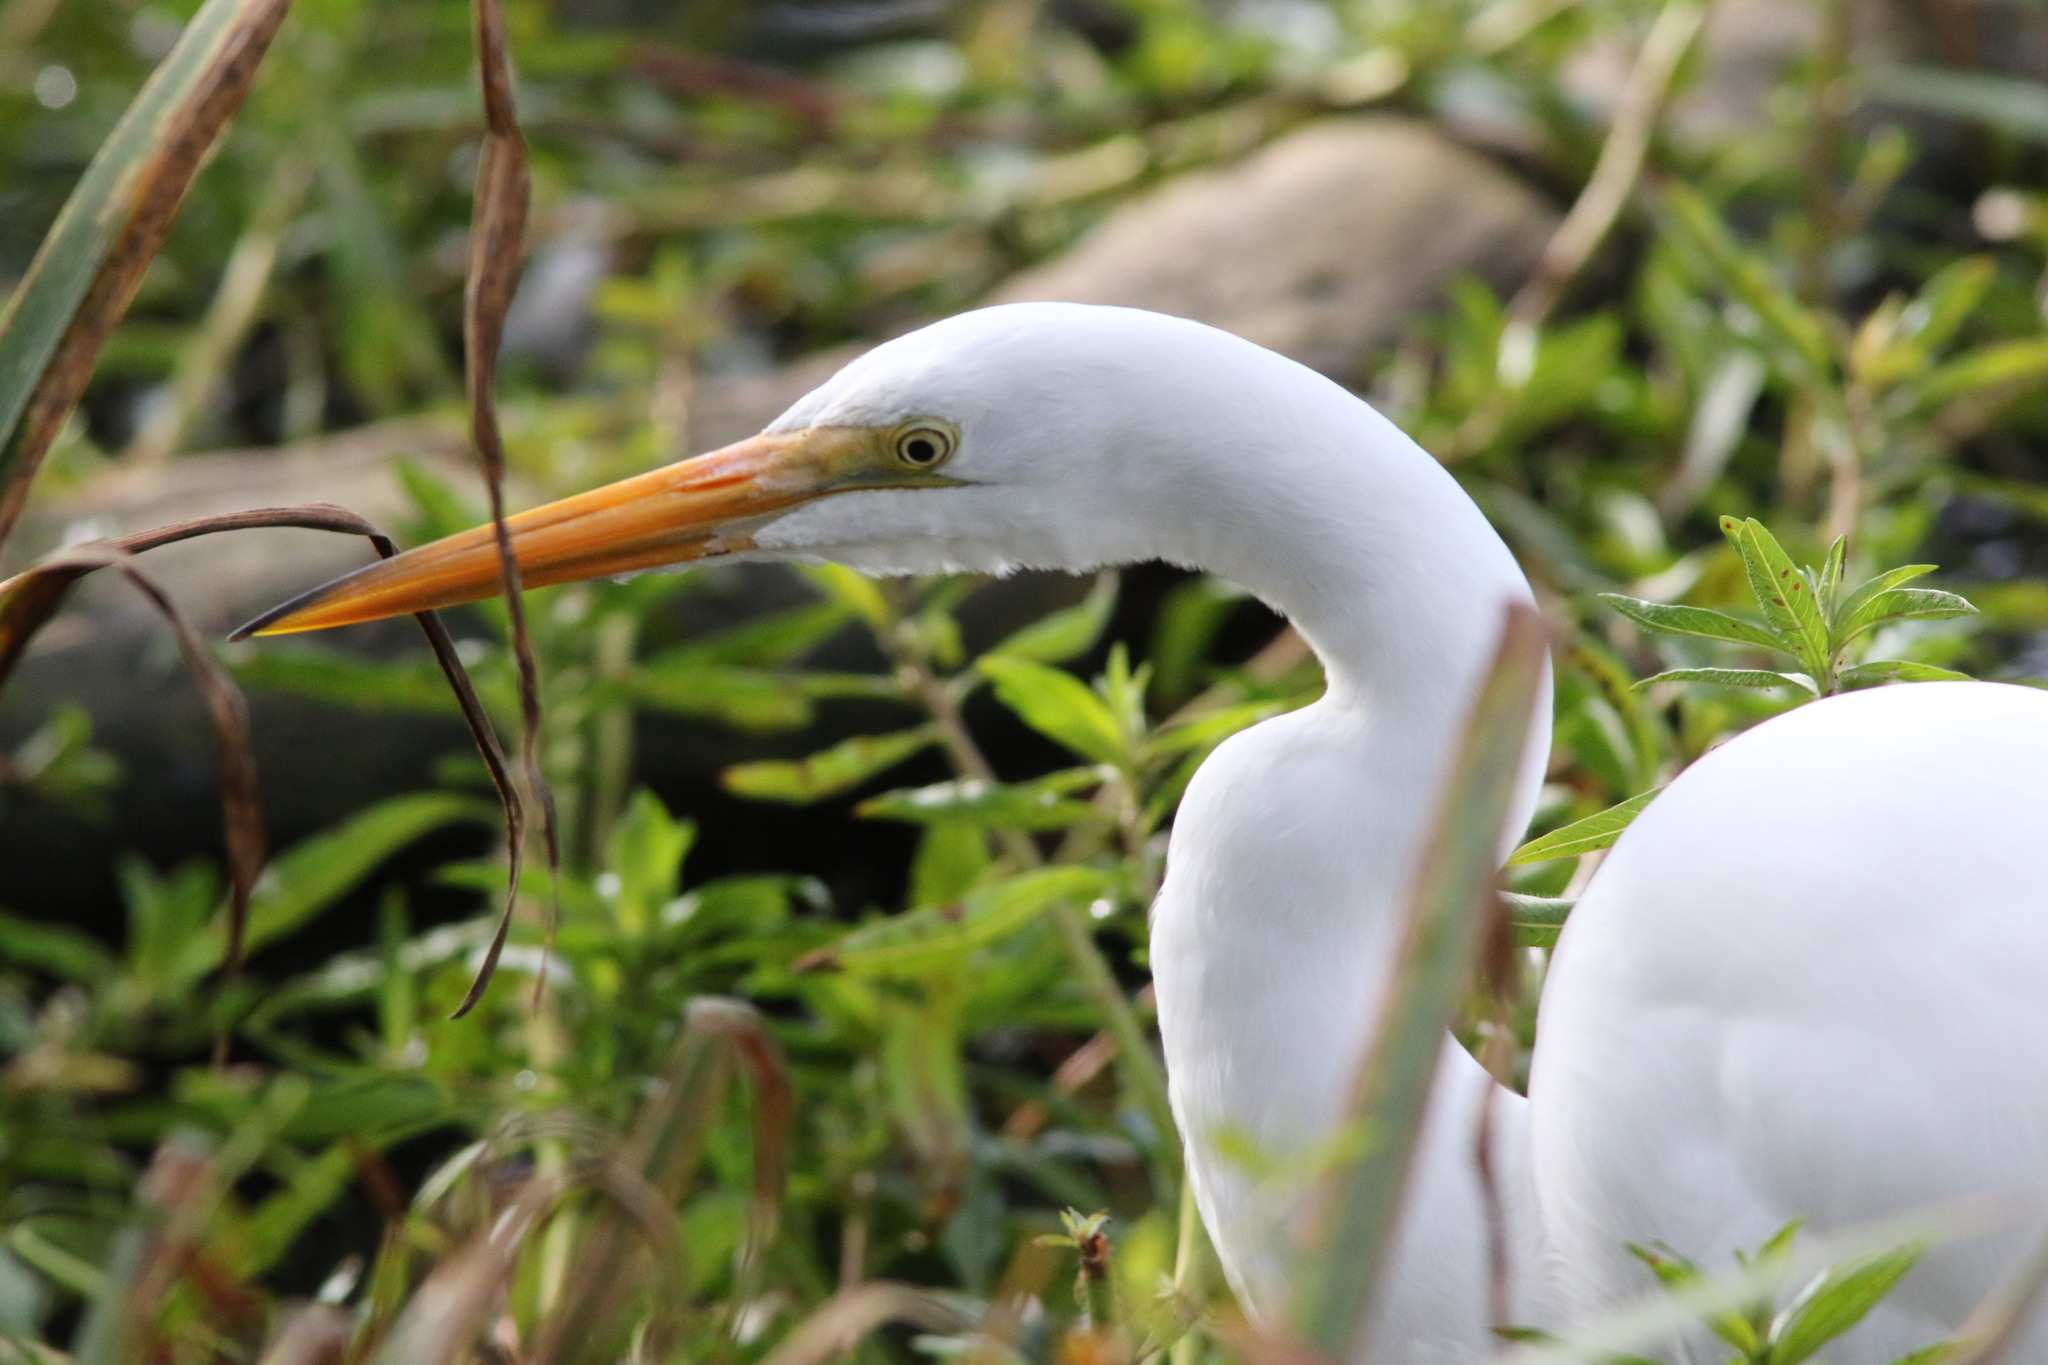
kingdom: Animalia
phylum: Chordata
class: Aves
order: Pelecaniformes
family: Ardeidae
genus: Ardea
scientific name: Ardea alba
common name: Great egret
